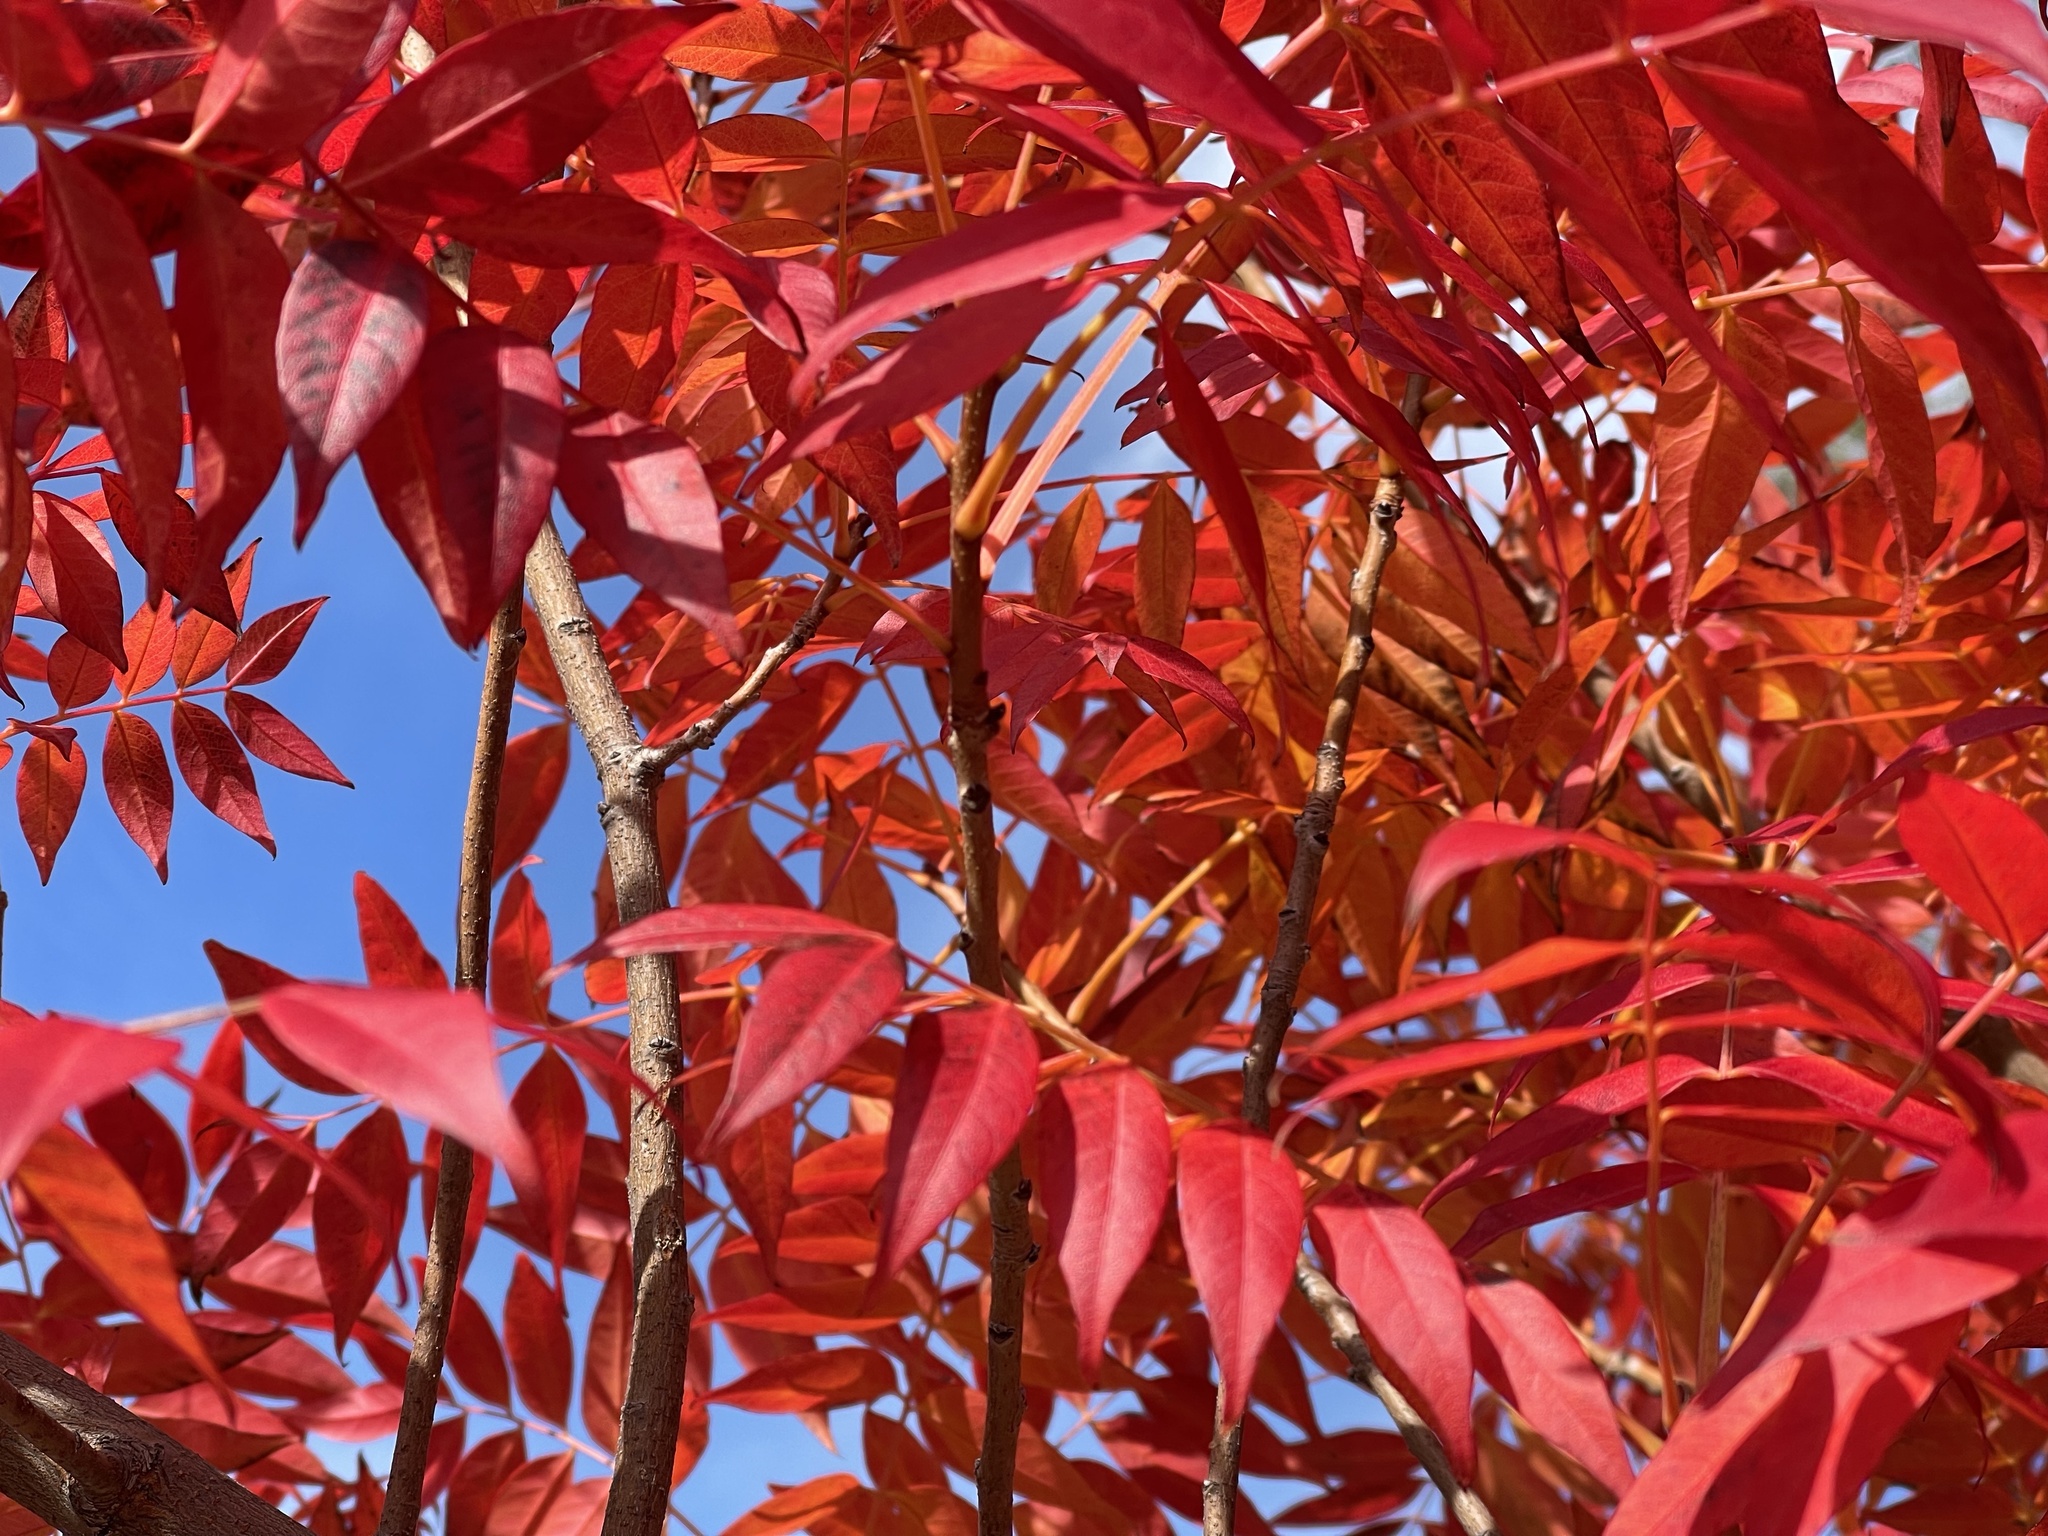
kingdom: Plantae
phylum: Tracheophyta
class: Magnoliopsida
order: Sapindales
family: Anacardiaceae
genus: Pistacia
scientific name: Pistacia chinensis
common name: Chinese pistache
